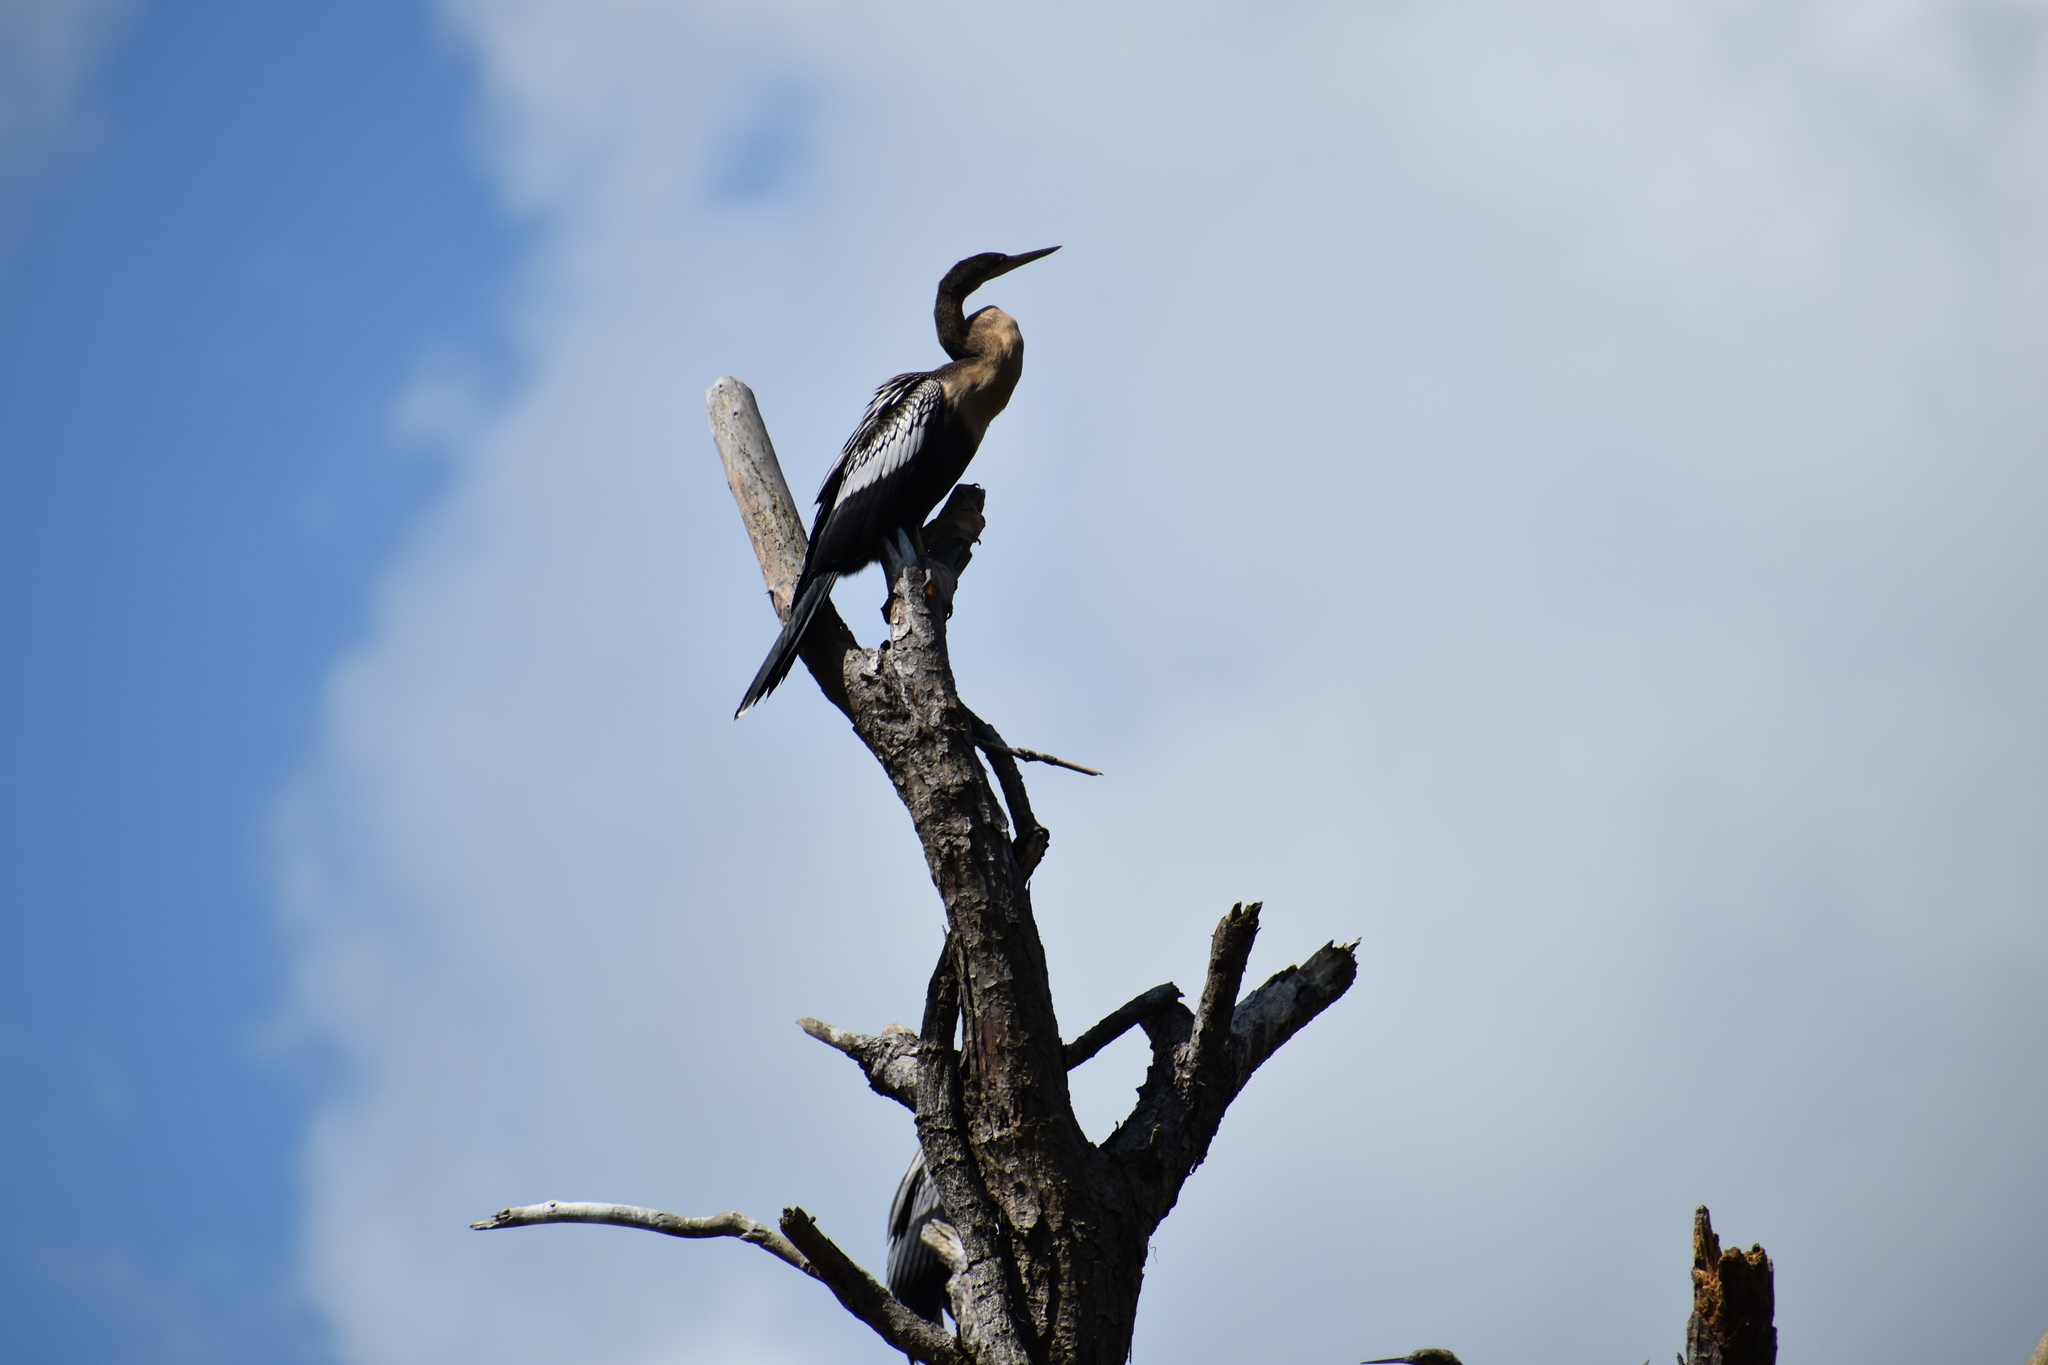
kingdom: Animalia
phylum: Chordata
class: Aves
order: Suliformes
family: Anhingidae
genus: Anhinga
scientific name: Anhinga anhinga
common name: Anhinga
